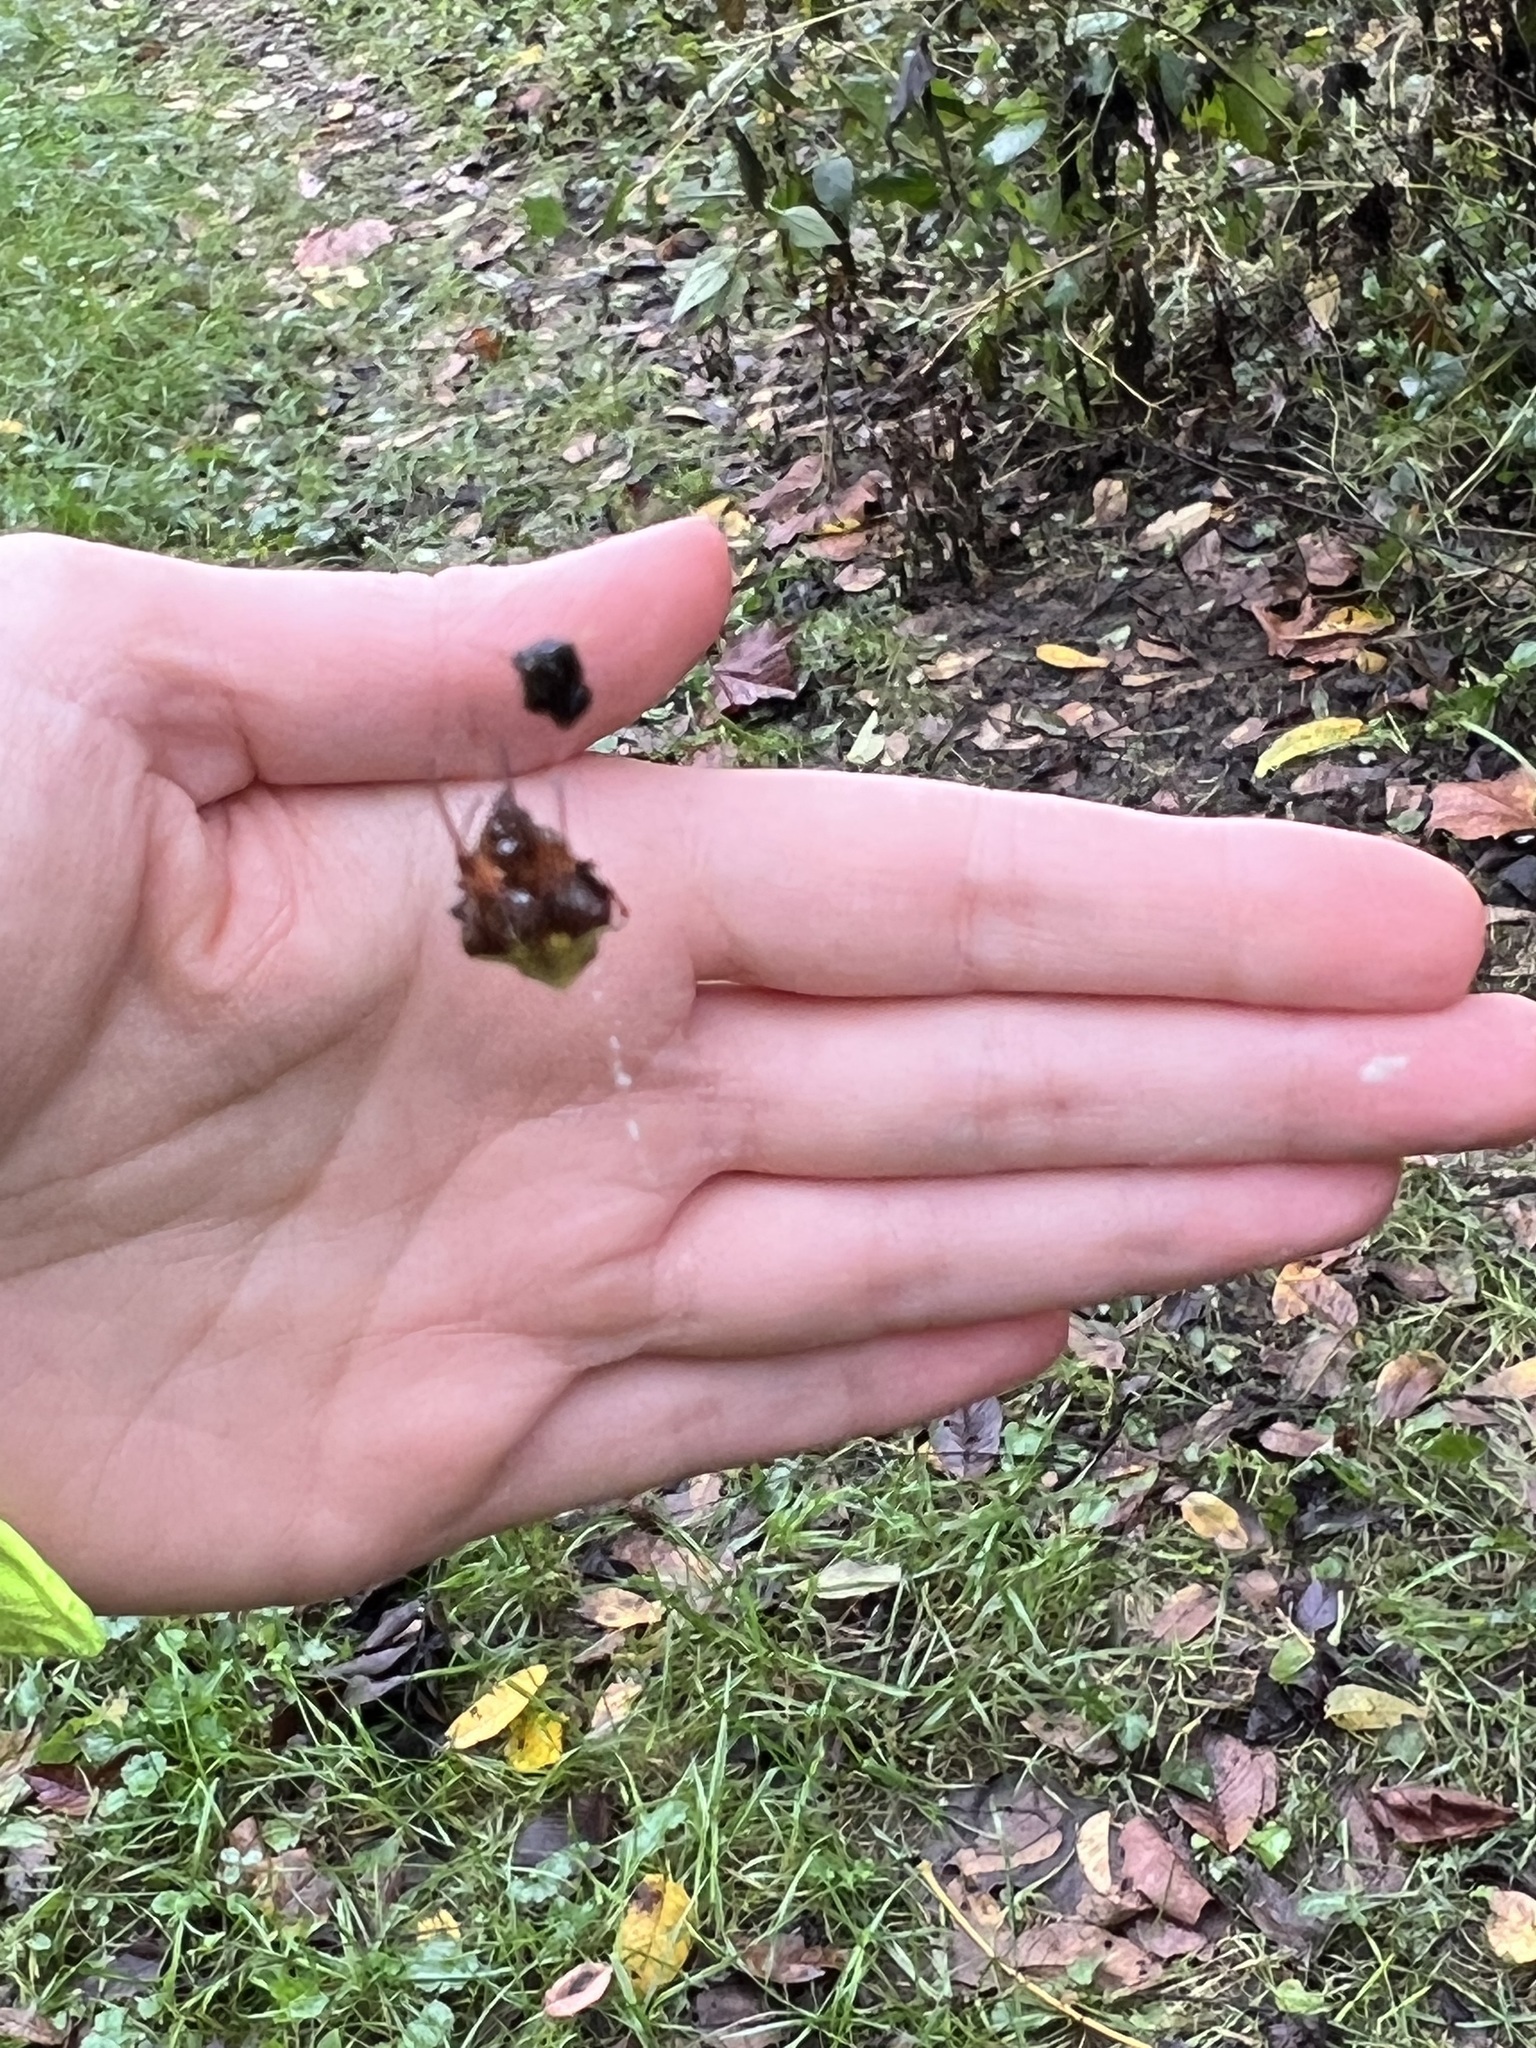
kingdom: Animalia
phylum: Arthropoda
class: Arachnida
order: Araneae
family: Araneidae
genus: Verrucosa
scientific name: Verrucosa arenata
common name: Orb weavers
